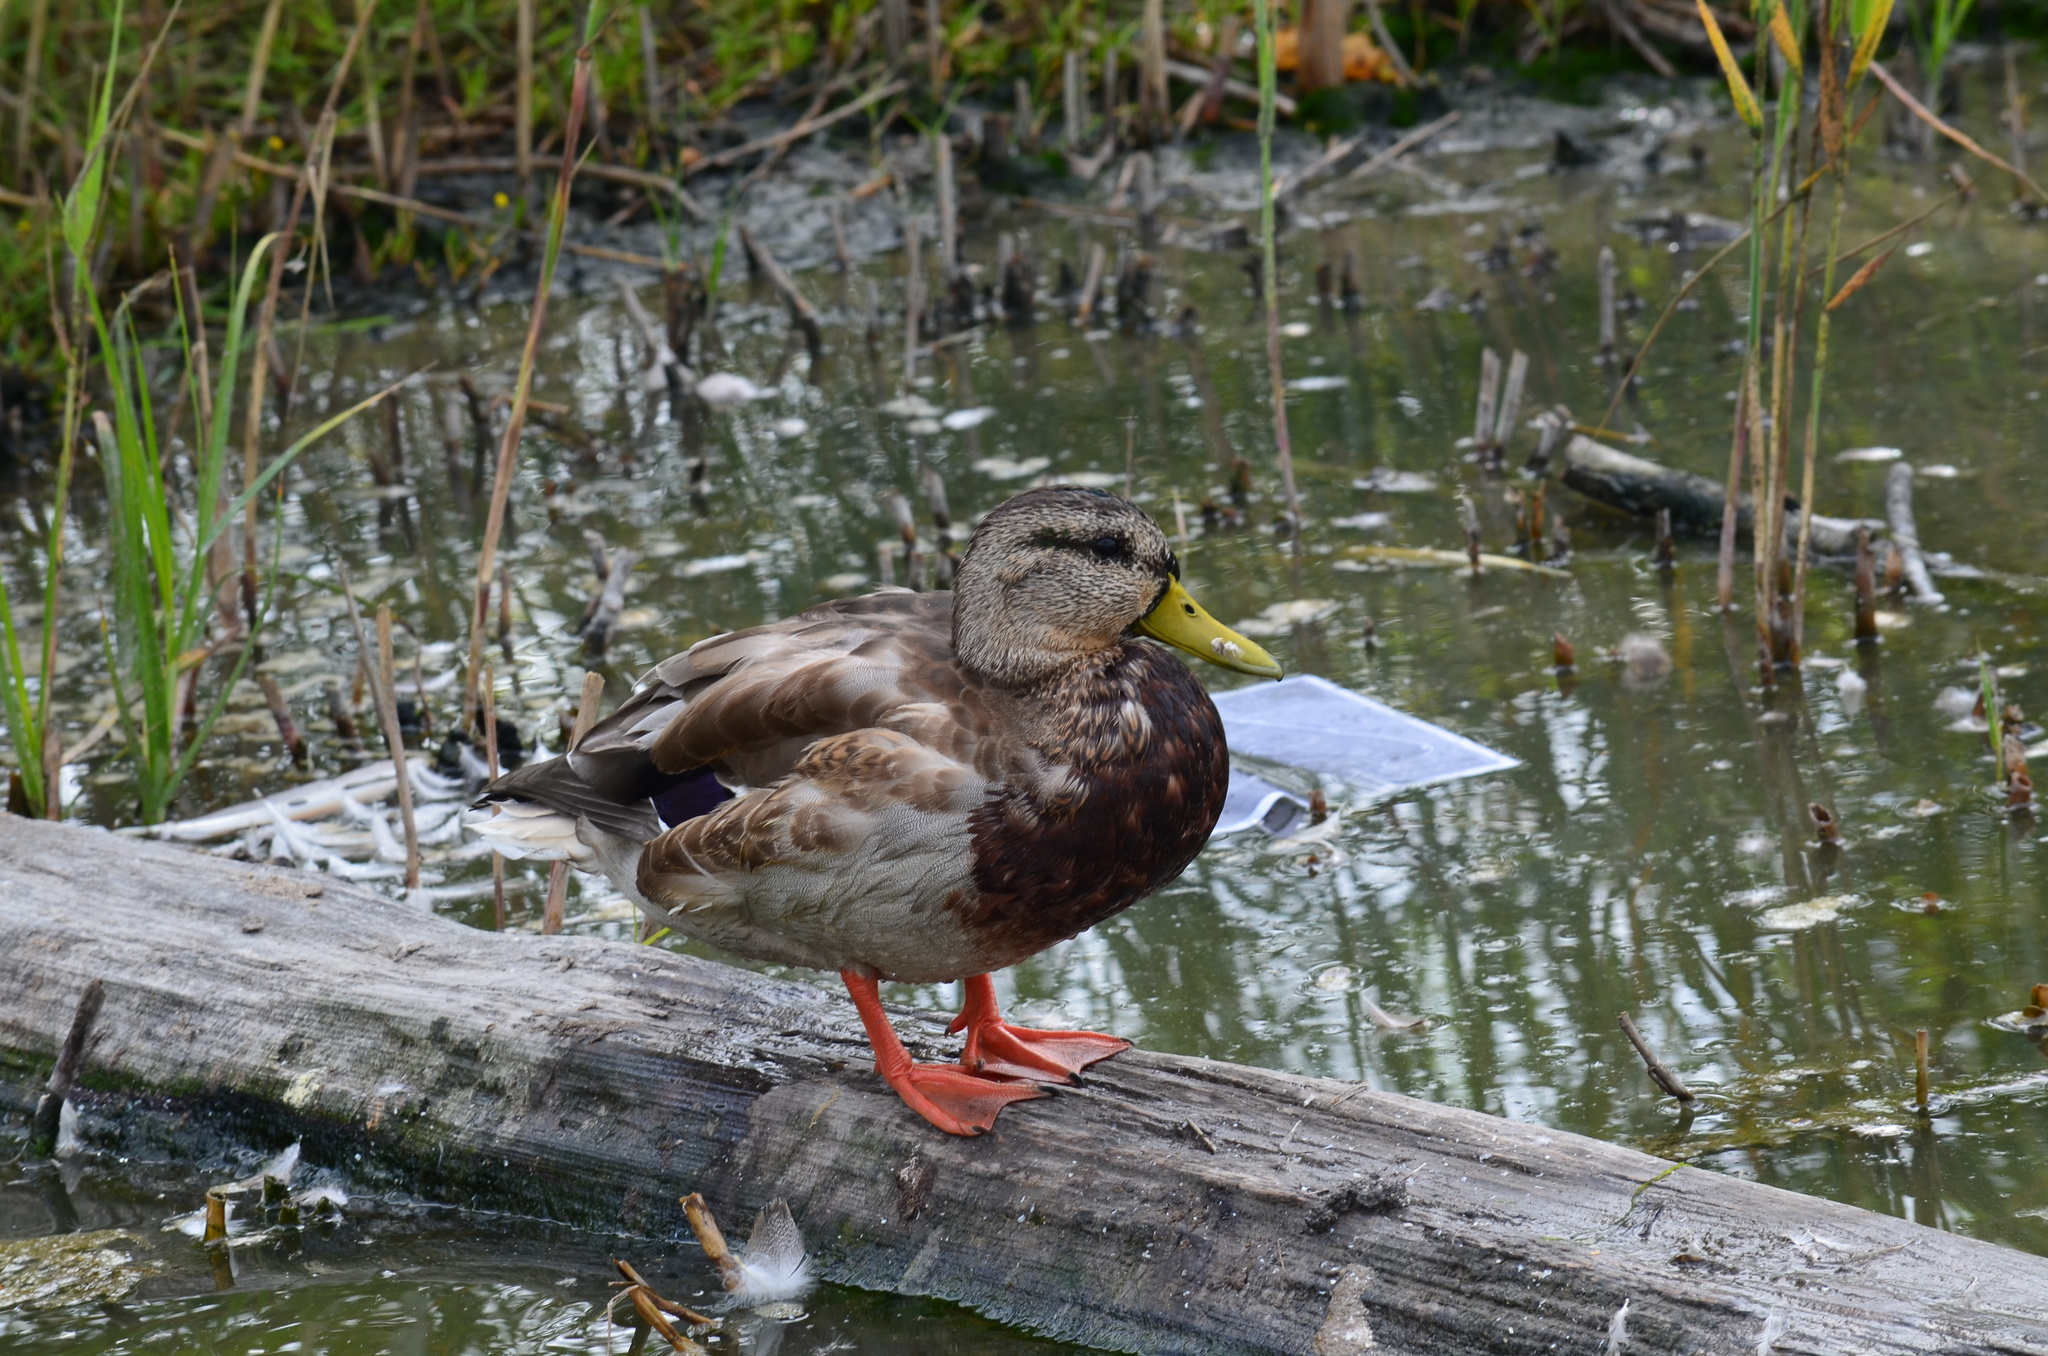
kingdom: Animalia
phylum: Chordata
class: Aves
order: Anseriformes
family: Anatidae
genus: Anas
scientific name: Anas platyrhynchos
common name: Mallard
